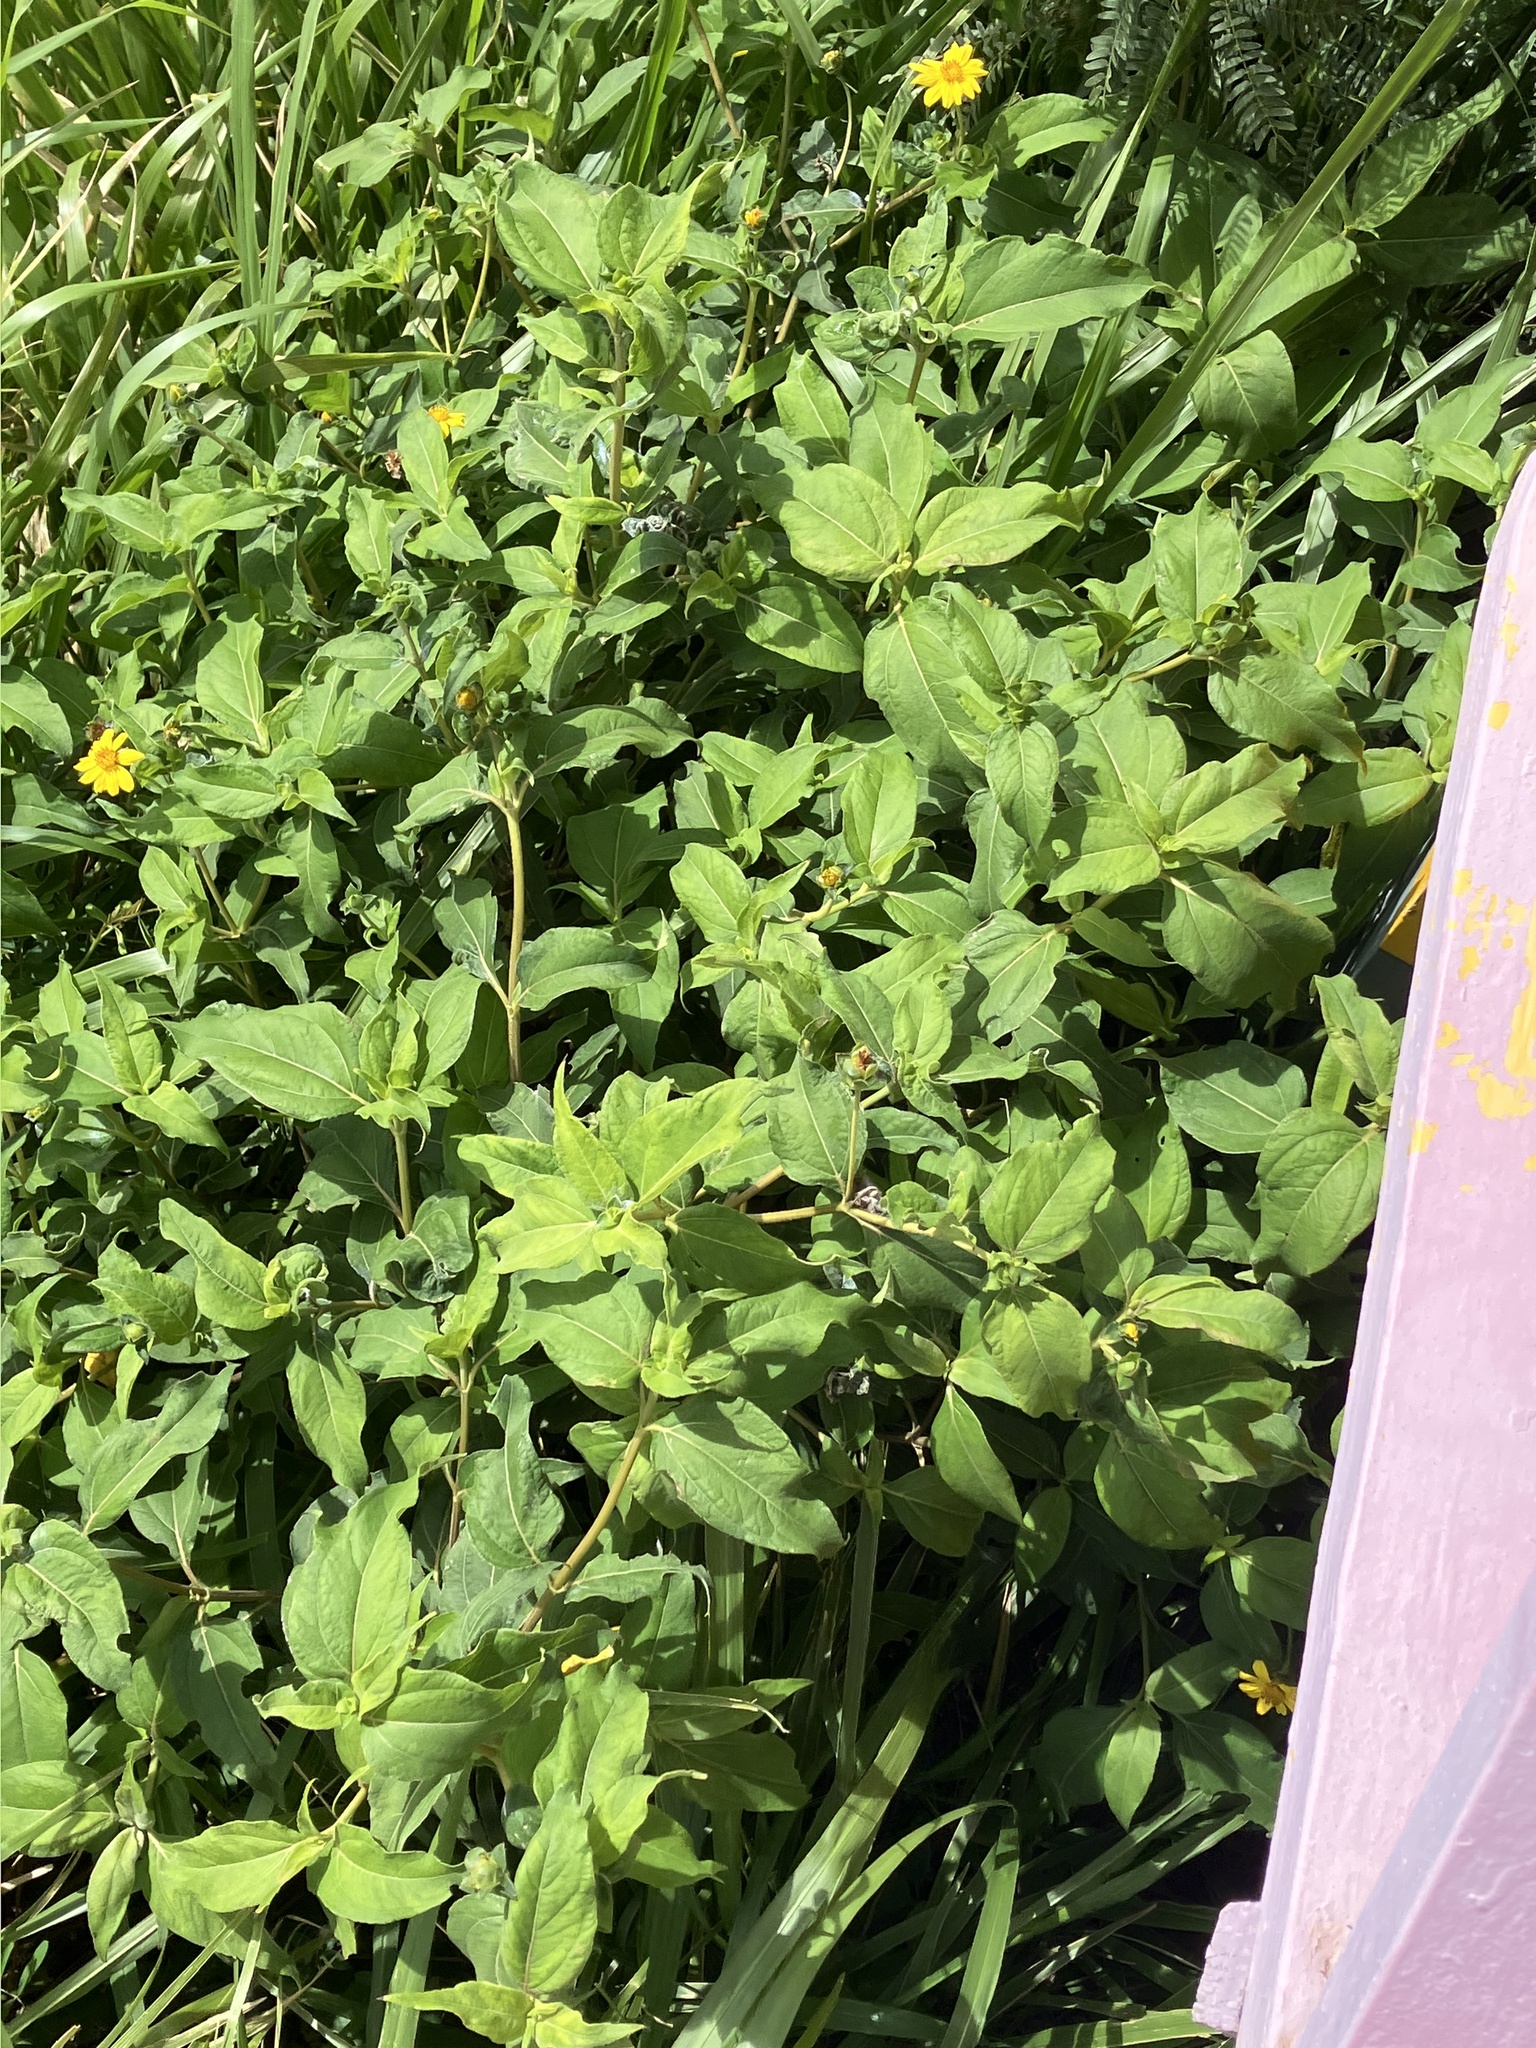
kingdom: Plantae
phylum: Tracheophyta
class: Magnoliopsida
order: Asterales
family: Asteraceae
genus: Wedelia
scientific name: Wedelia calycina
